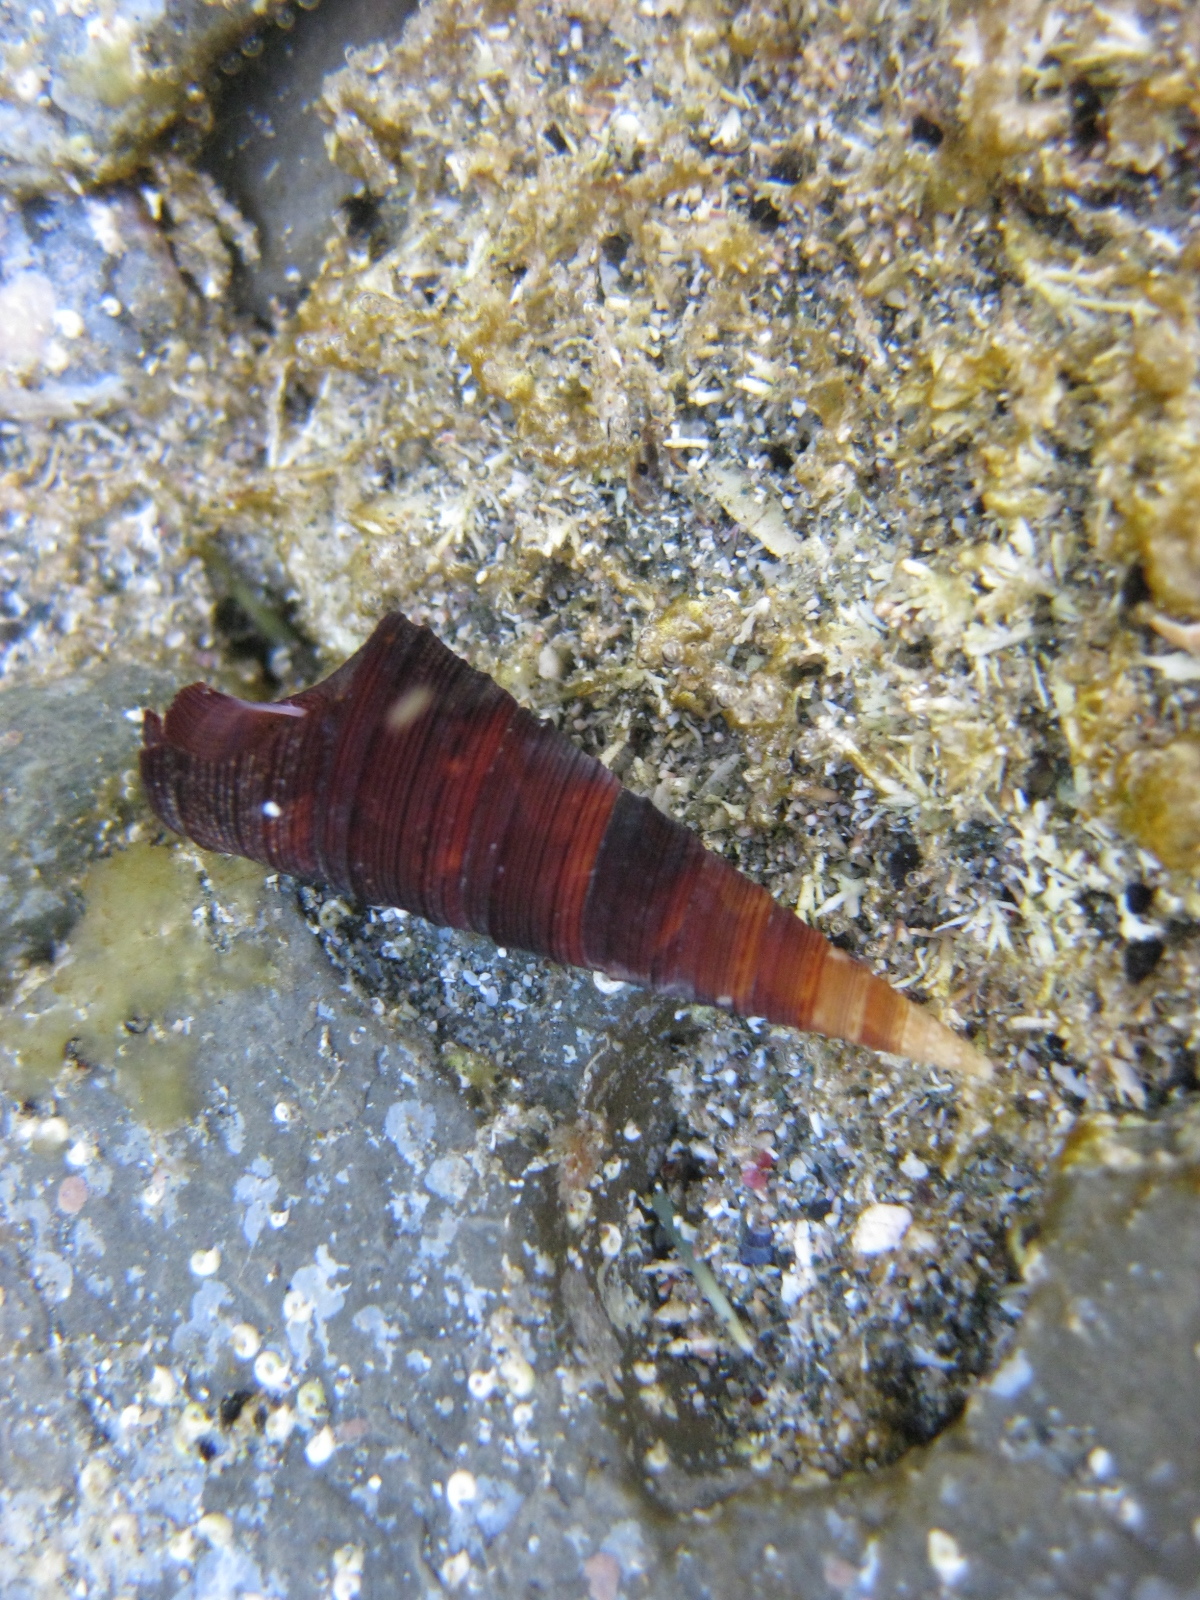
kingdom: Animalia
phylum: Mollusca
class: Gastropoda
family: Turritellidae
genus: Maoricolpus
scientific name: Maoricolpus roseus
